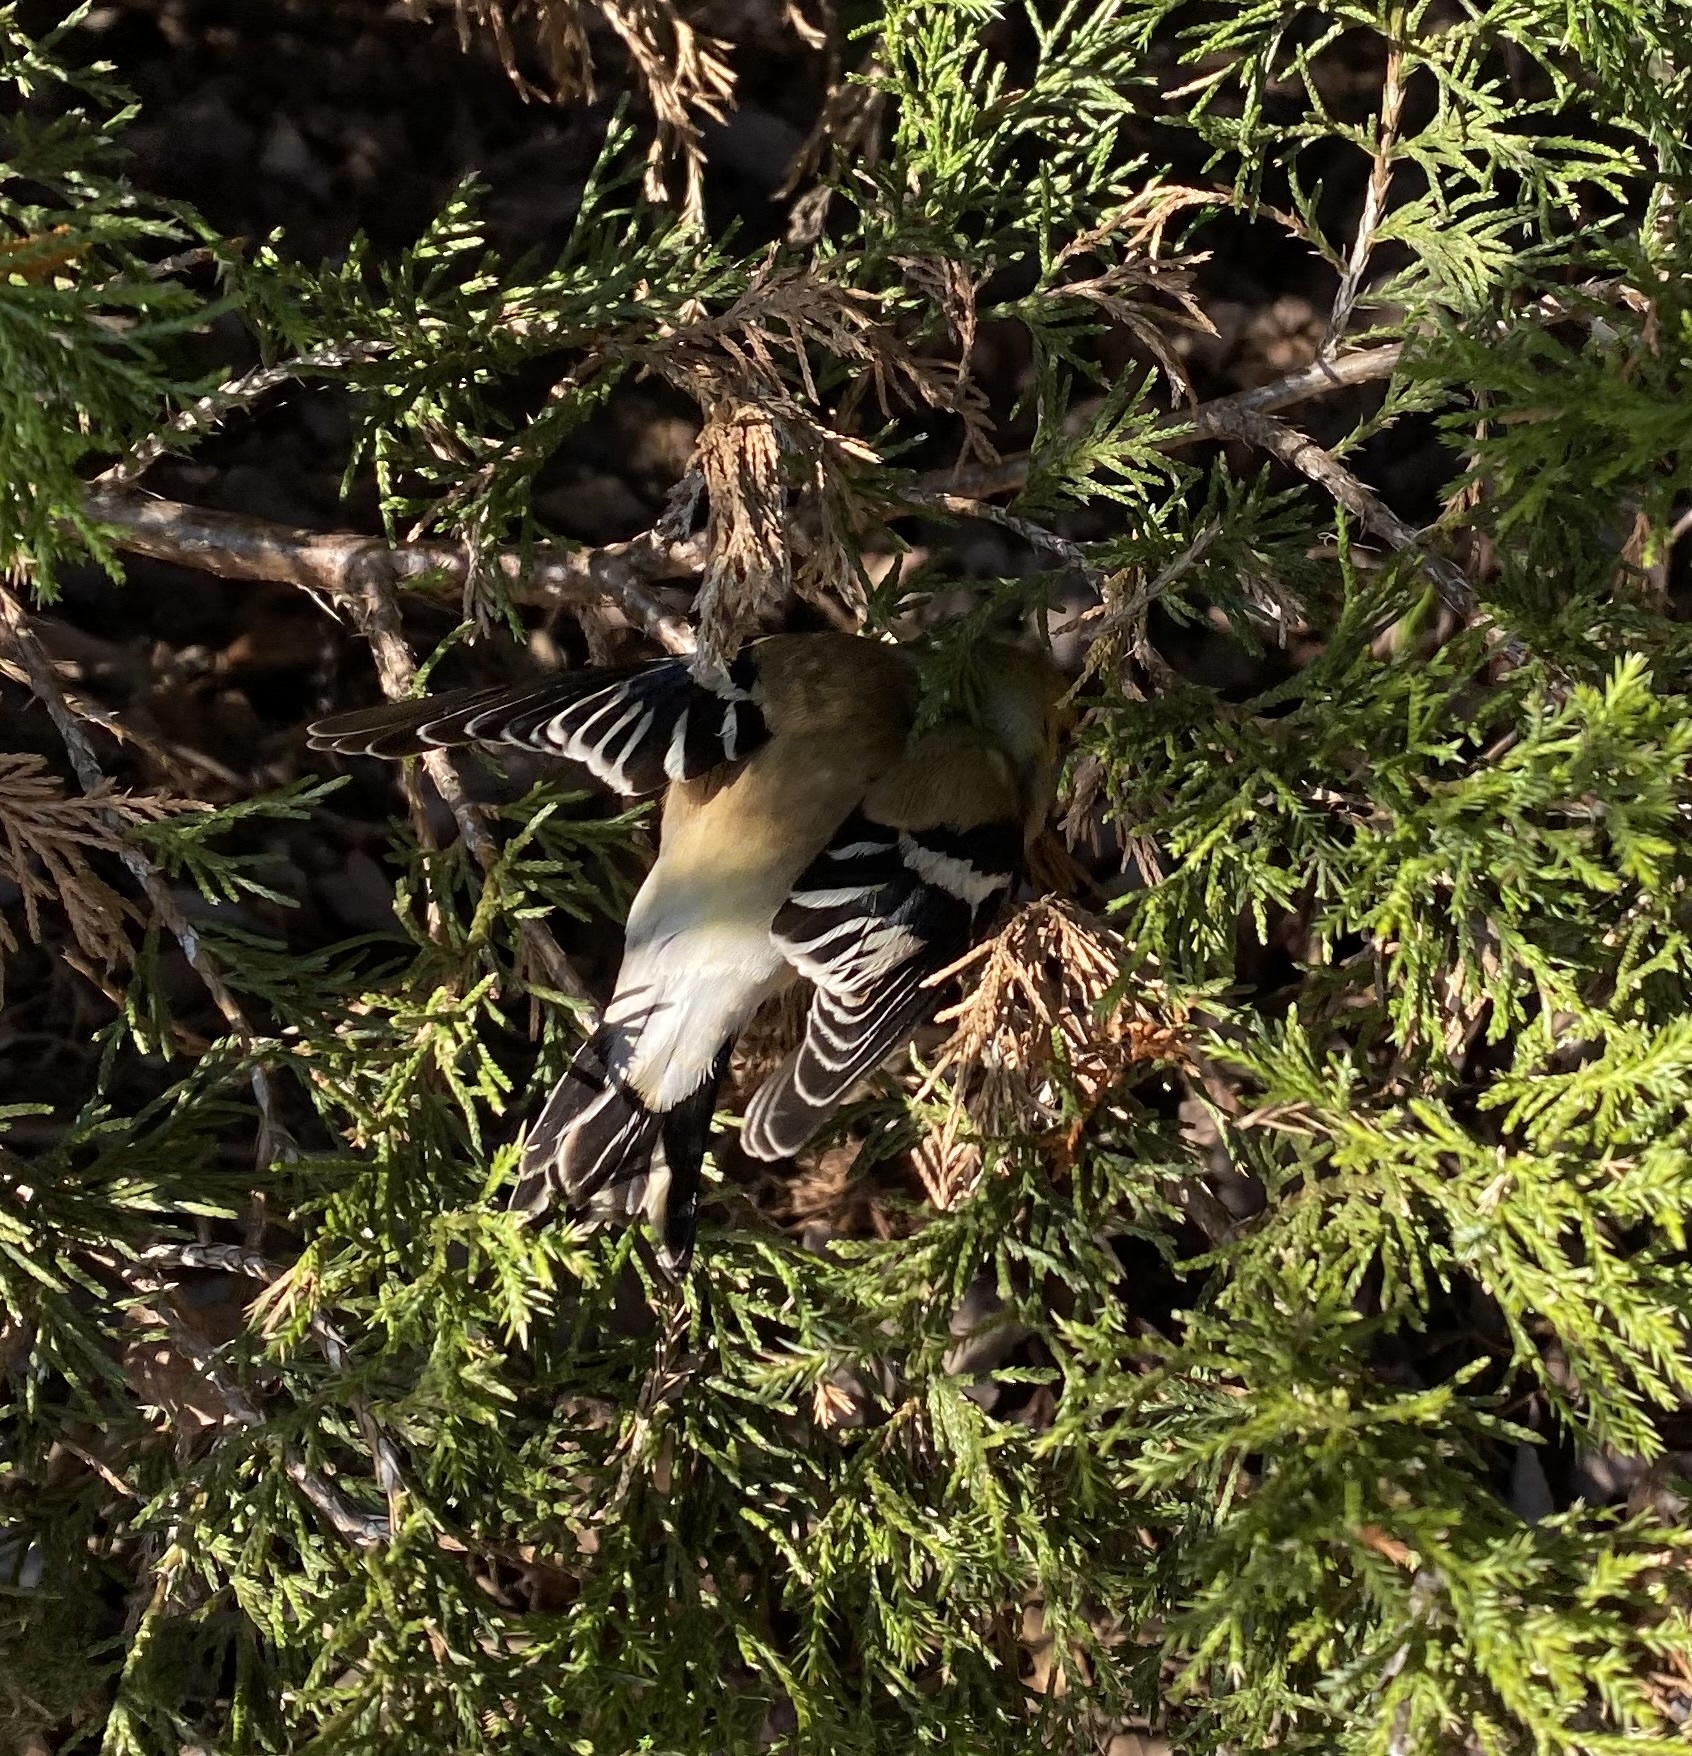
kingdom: Animalia
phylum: Chordata
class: Aves
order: Passeriformes
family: Fringillidae
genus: Spinus
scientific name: Spinus tristis
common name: American goldfinch
